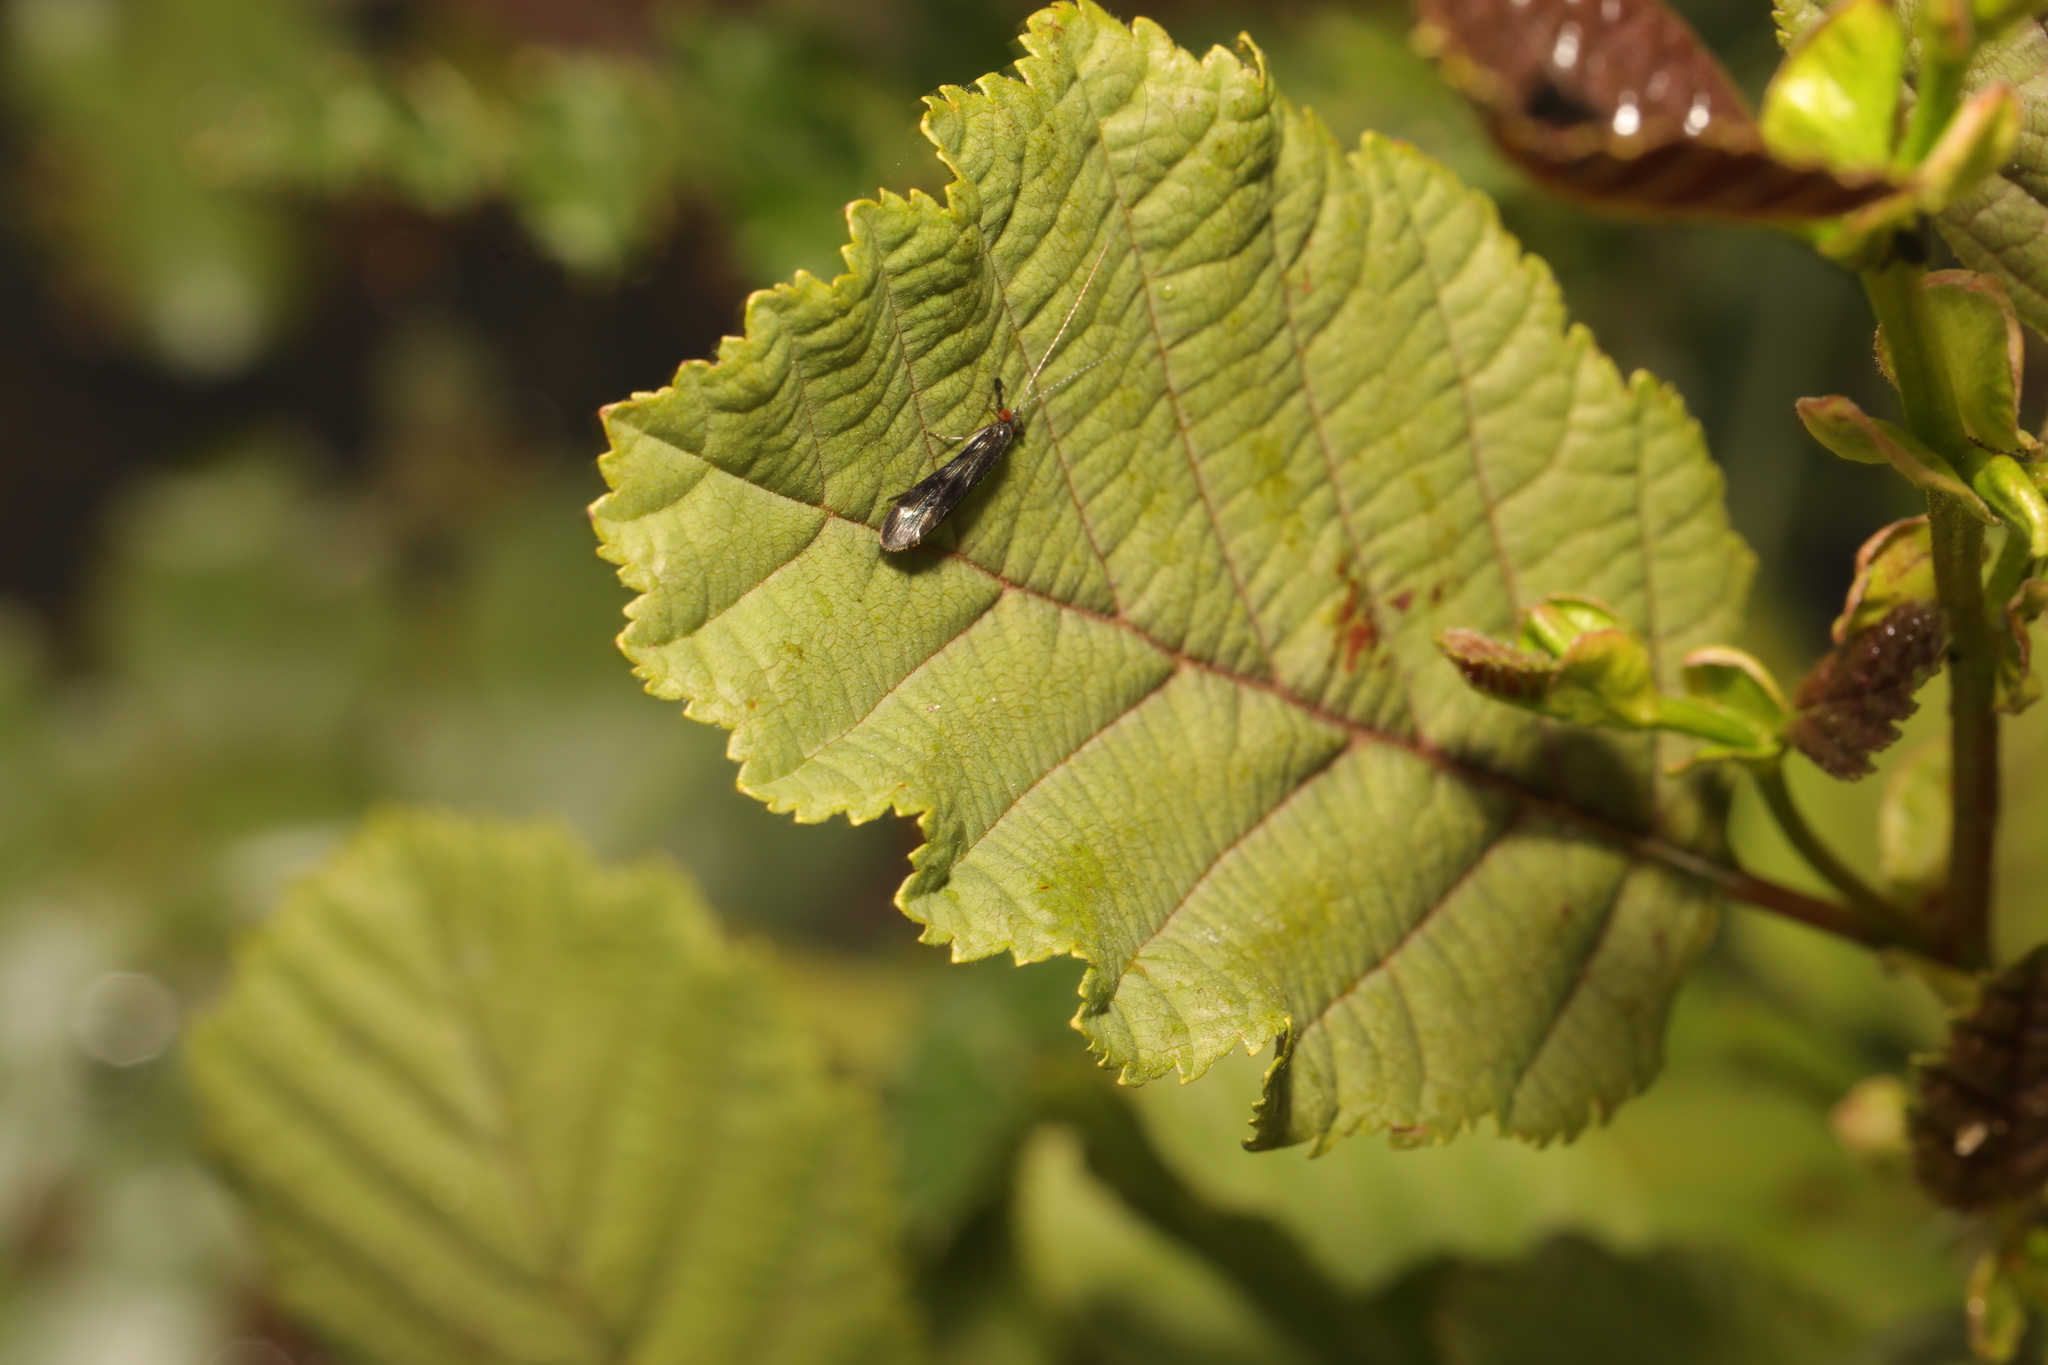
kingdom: Animalia
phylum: Arthropoda
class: Insecta
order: Trichoptera
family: Leptoceridae
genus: Mystacides
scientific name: Mystacides azureus
